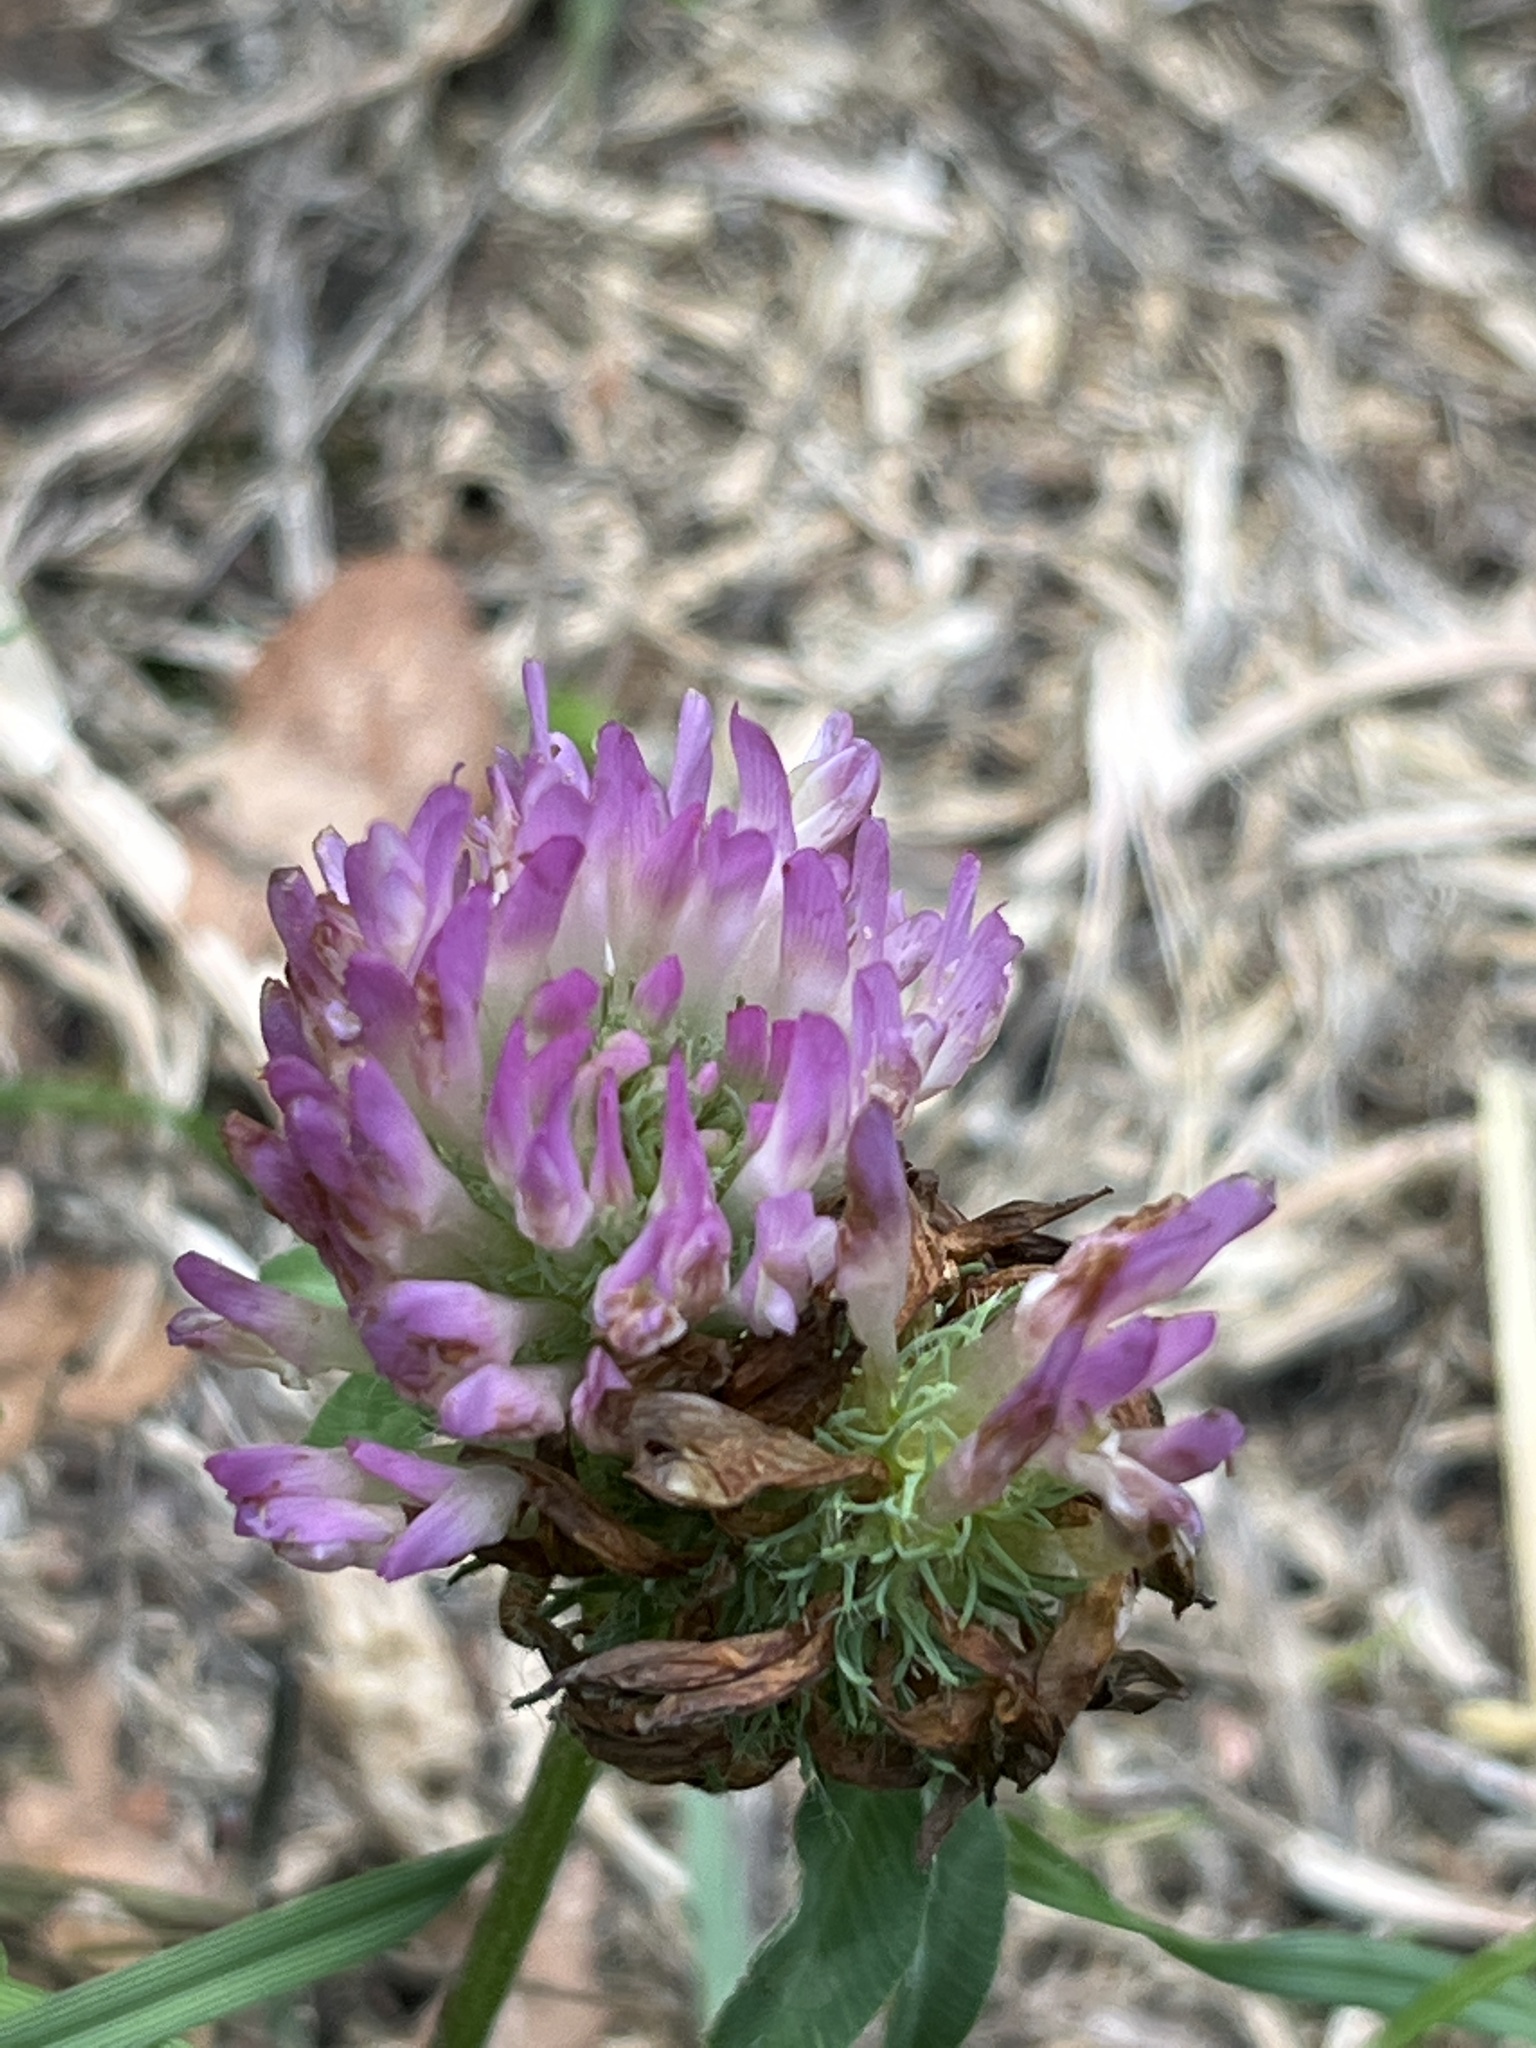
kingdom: Plantae
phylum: Tracheophyta
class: Magnoliopsida
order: Fabales
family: Fabaceae
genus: Trifolium
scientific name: Trifolium pratense
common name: Red clover
